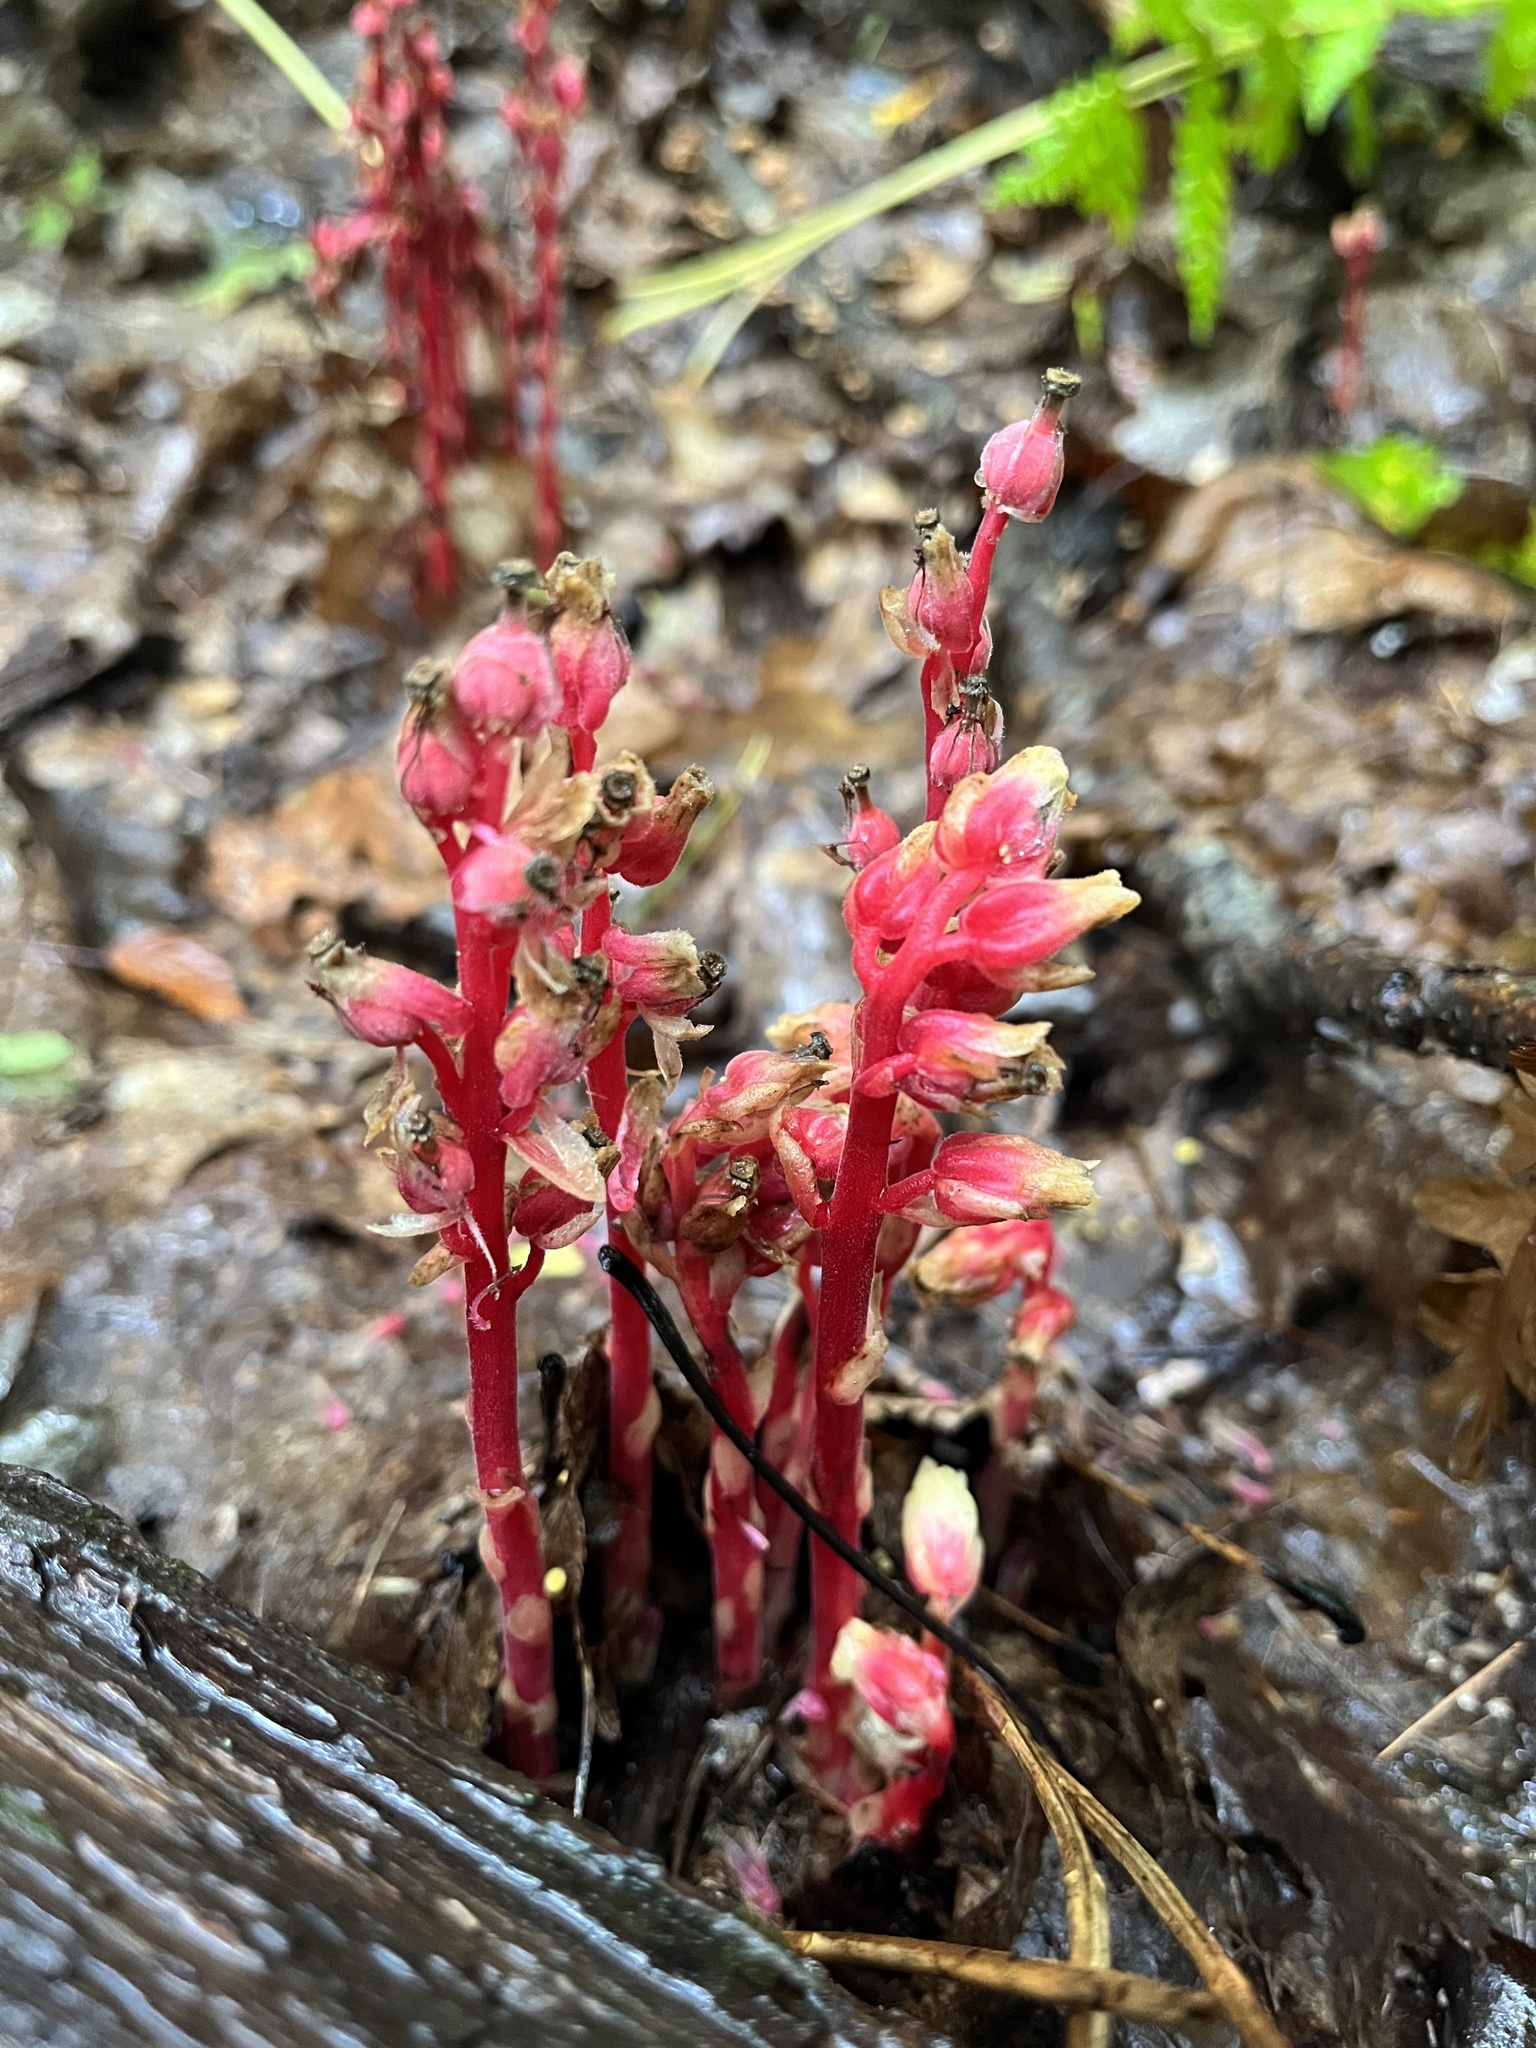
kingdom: Plantae
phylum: Tracheophyta
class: Magnoliopsida
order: Ericales
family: Ericaceae
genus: Hypopitys
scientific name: Hypopitys monotropa
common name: Yellow bird's-nest
